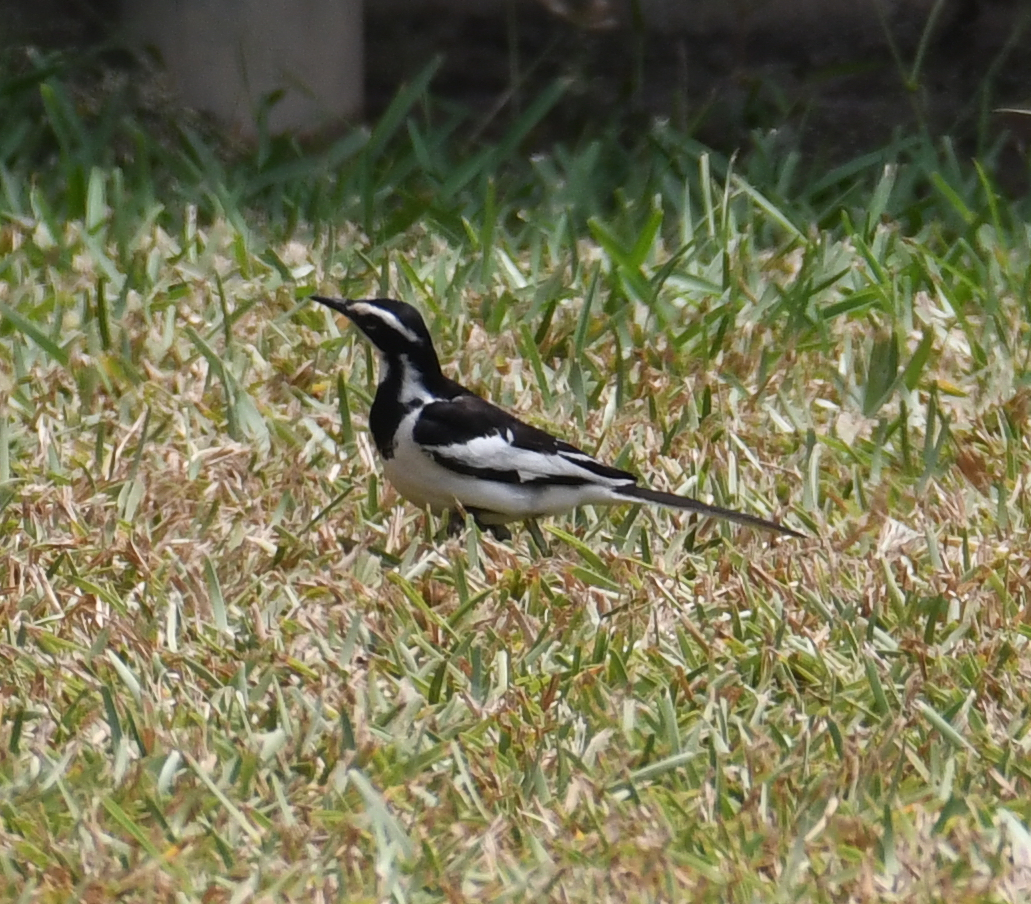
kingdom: Animalia
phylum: Chordata
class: Aves
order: Passeriformes
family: Motacillidae
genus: Motacilla
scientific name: Motacilla aguimp
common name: African pied wagtail
